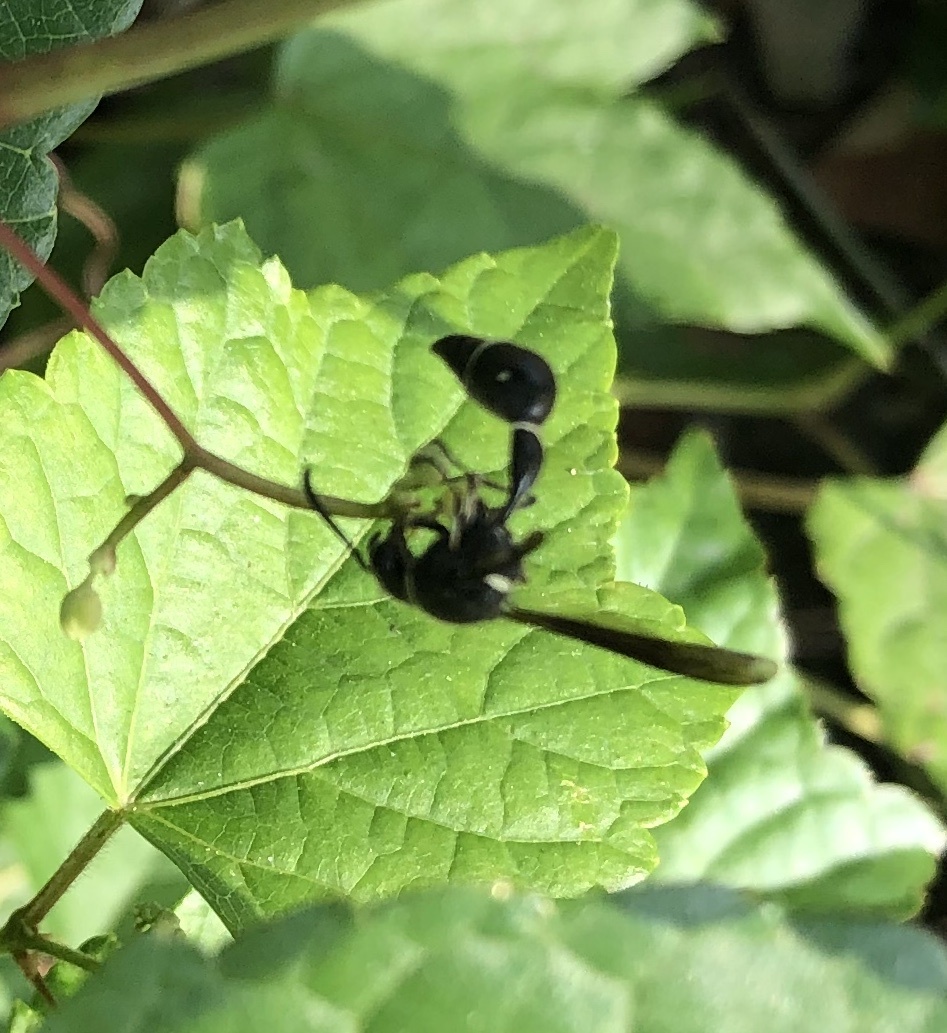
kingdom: Animalia
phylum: Arthropoda
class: Insecta
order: Hymenoptera
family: Vespidae
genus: Eumenes
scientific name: Eumenes fraternus
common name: Fraternal potter wasp
